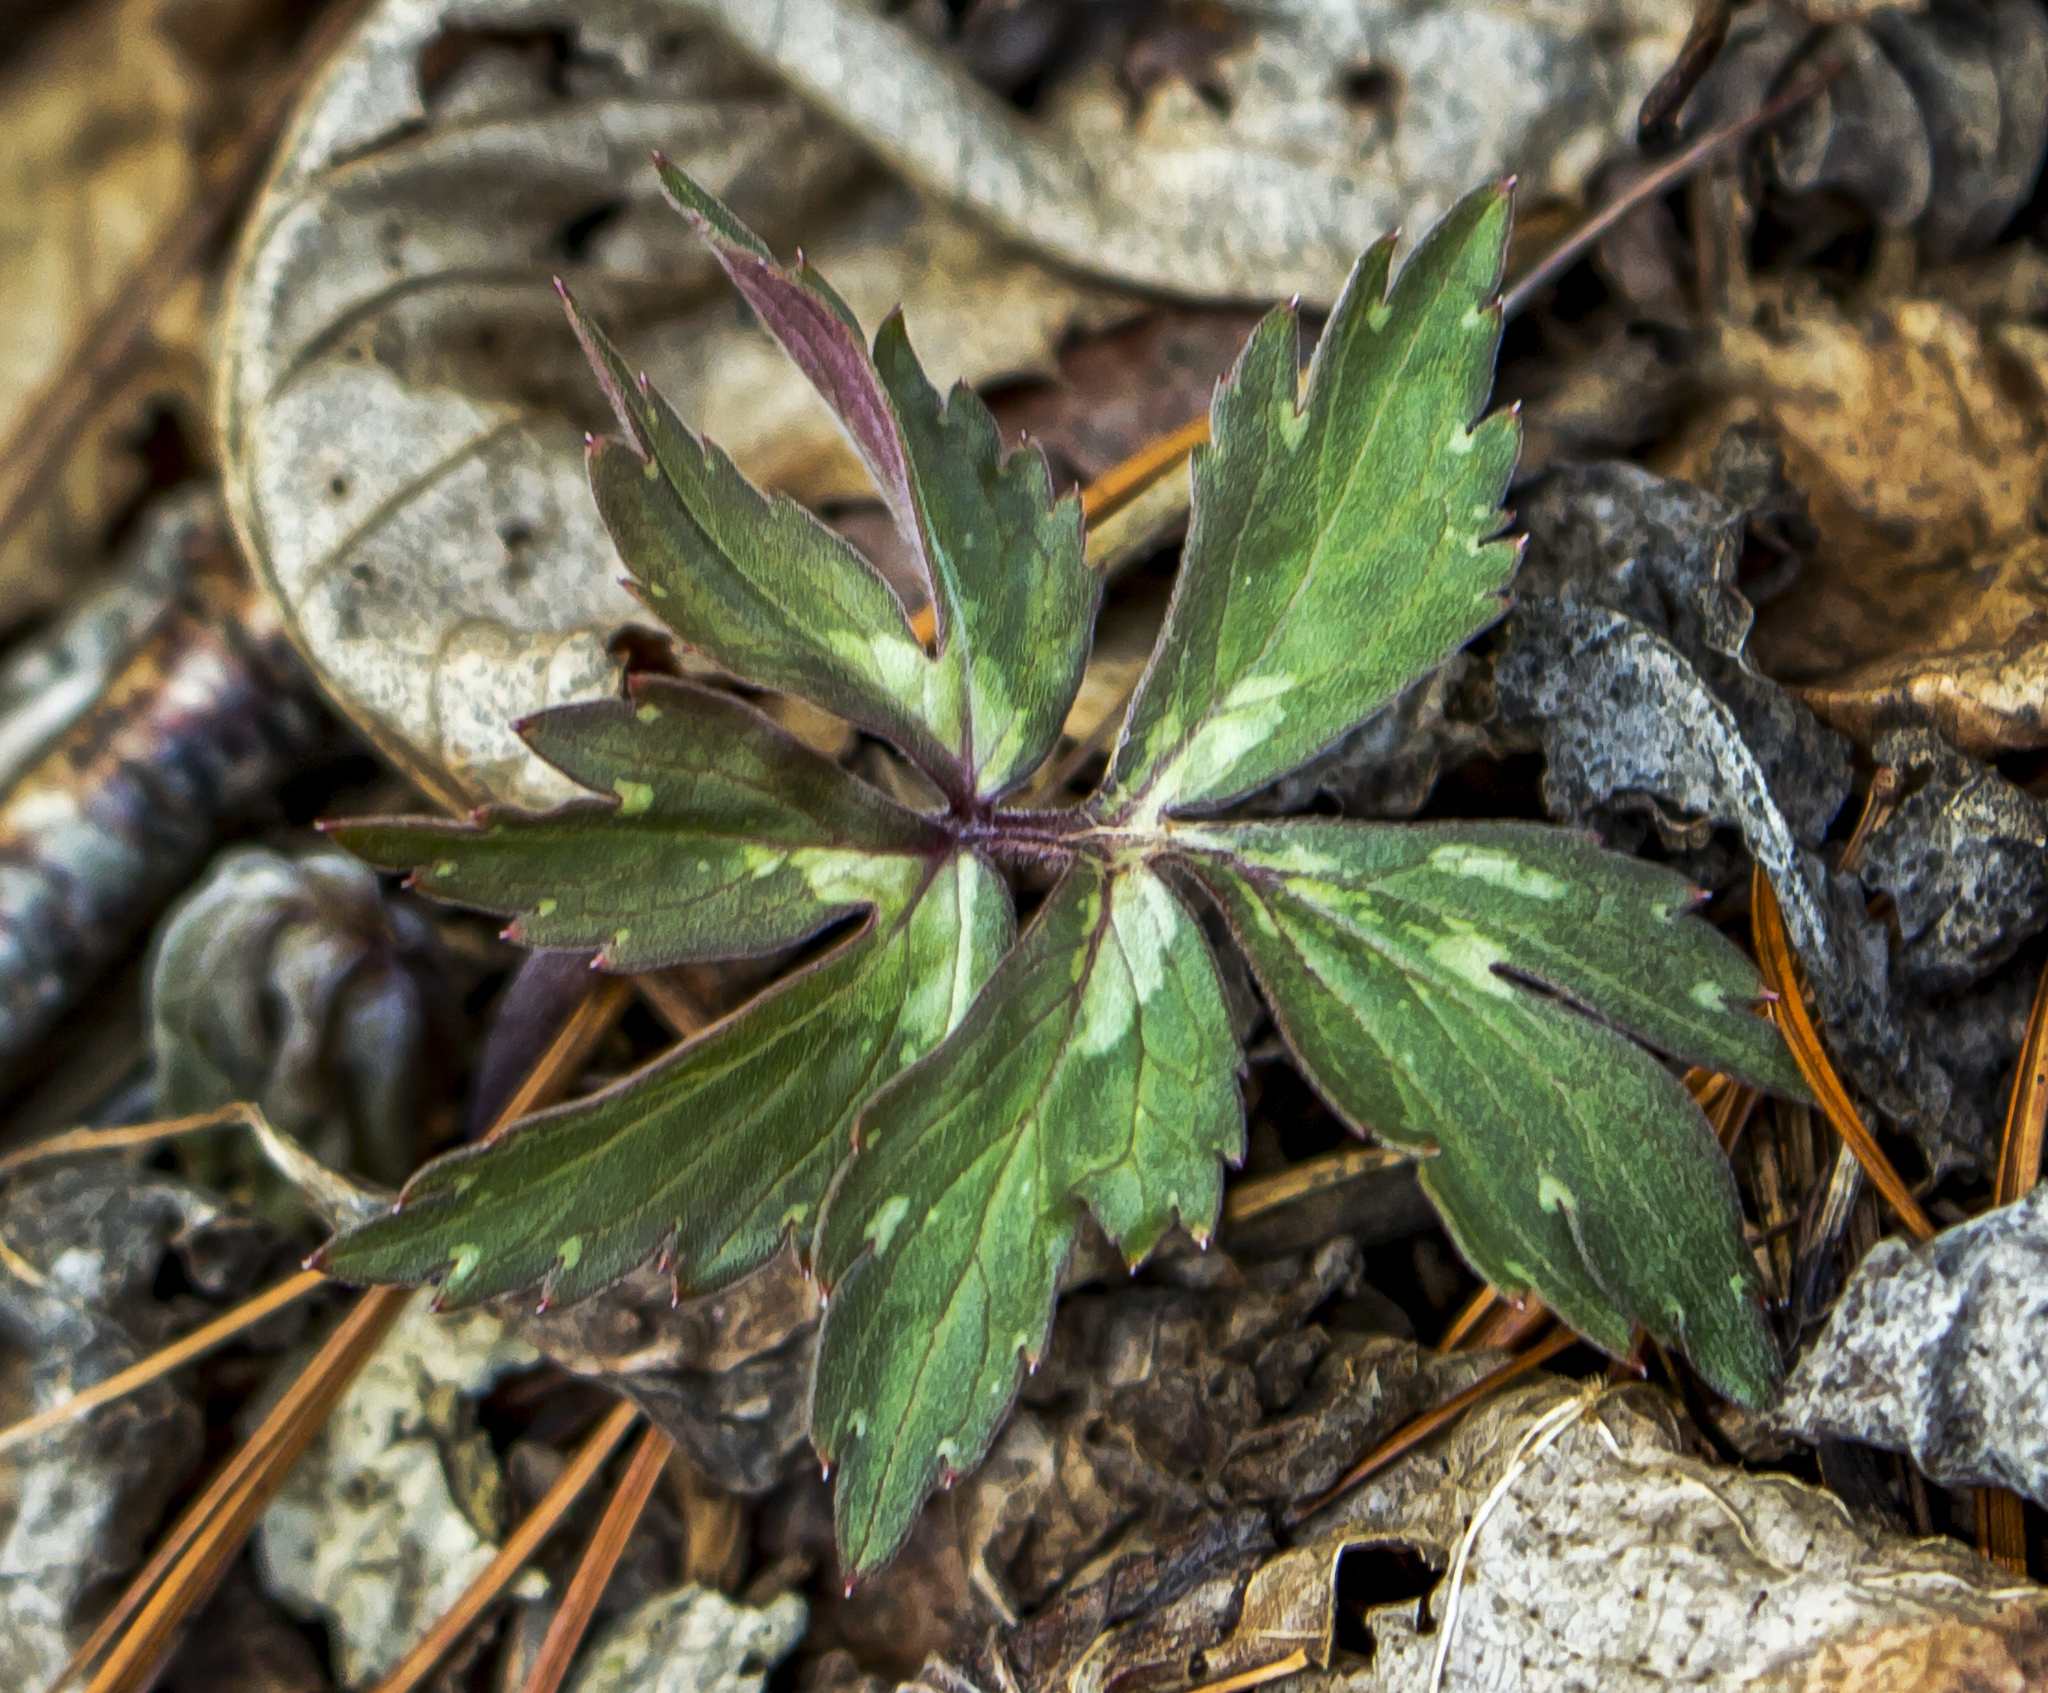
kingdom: Plantae
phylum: Tracheophyta
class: Magnoliopsida
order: Boraginales
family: Hydrophyllaceae
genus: Hydrophyllum
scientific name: Hydrophyllum virginianum
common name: Virginia waterleaf
